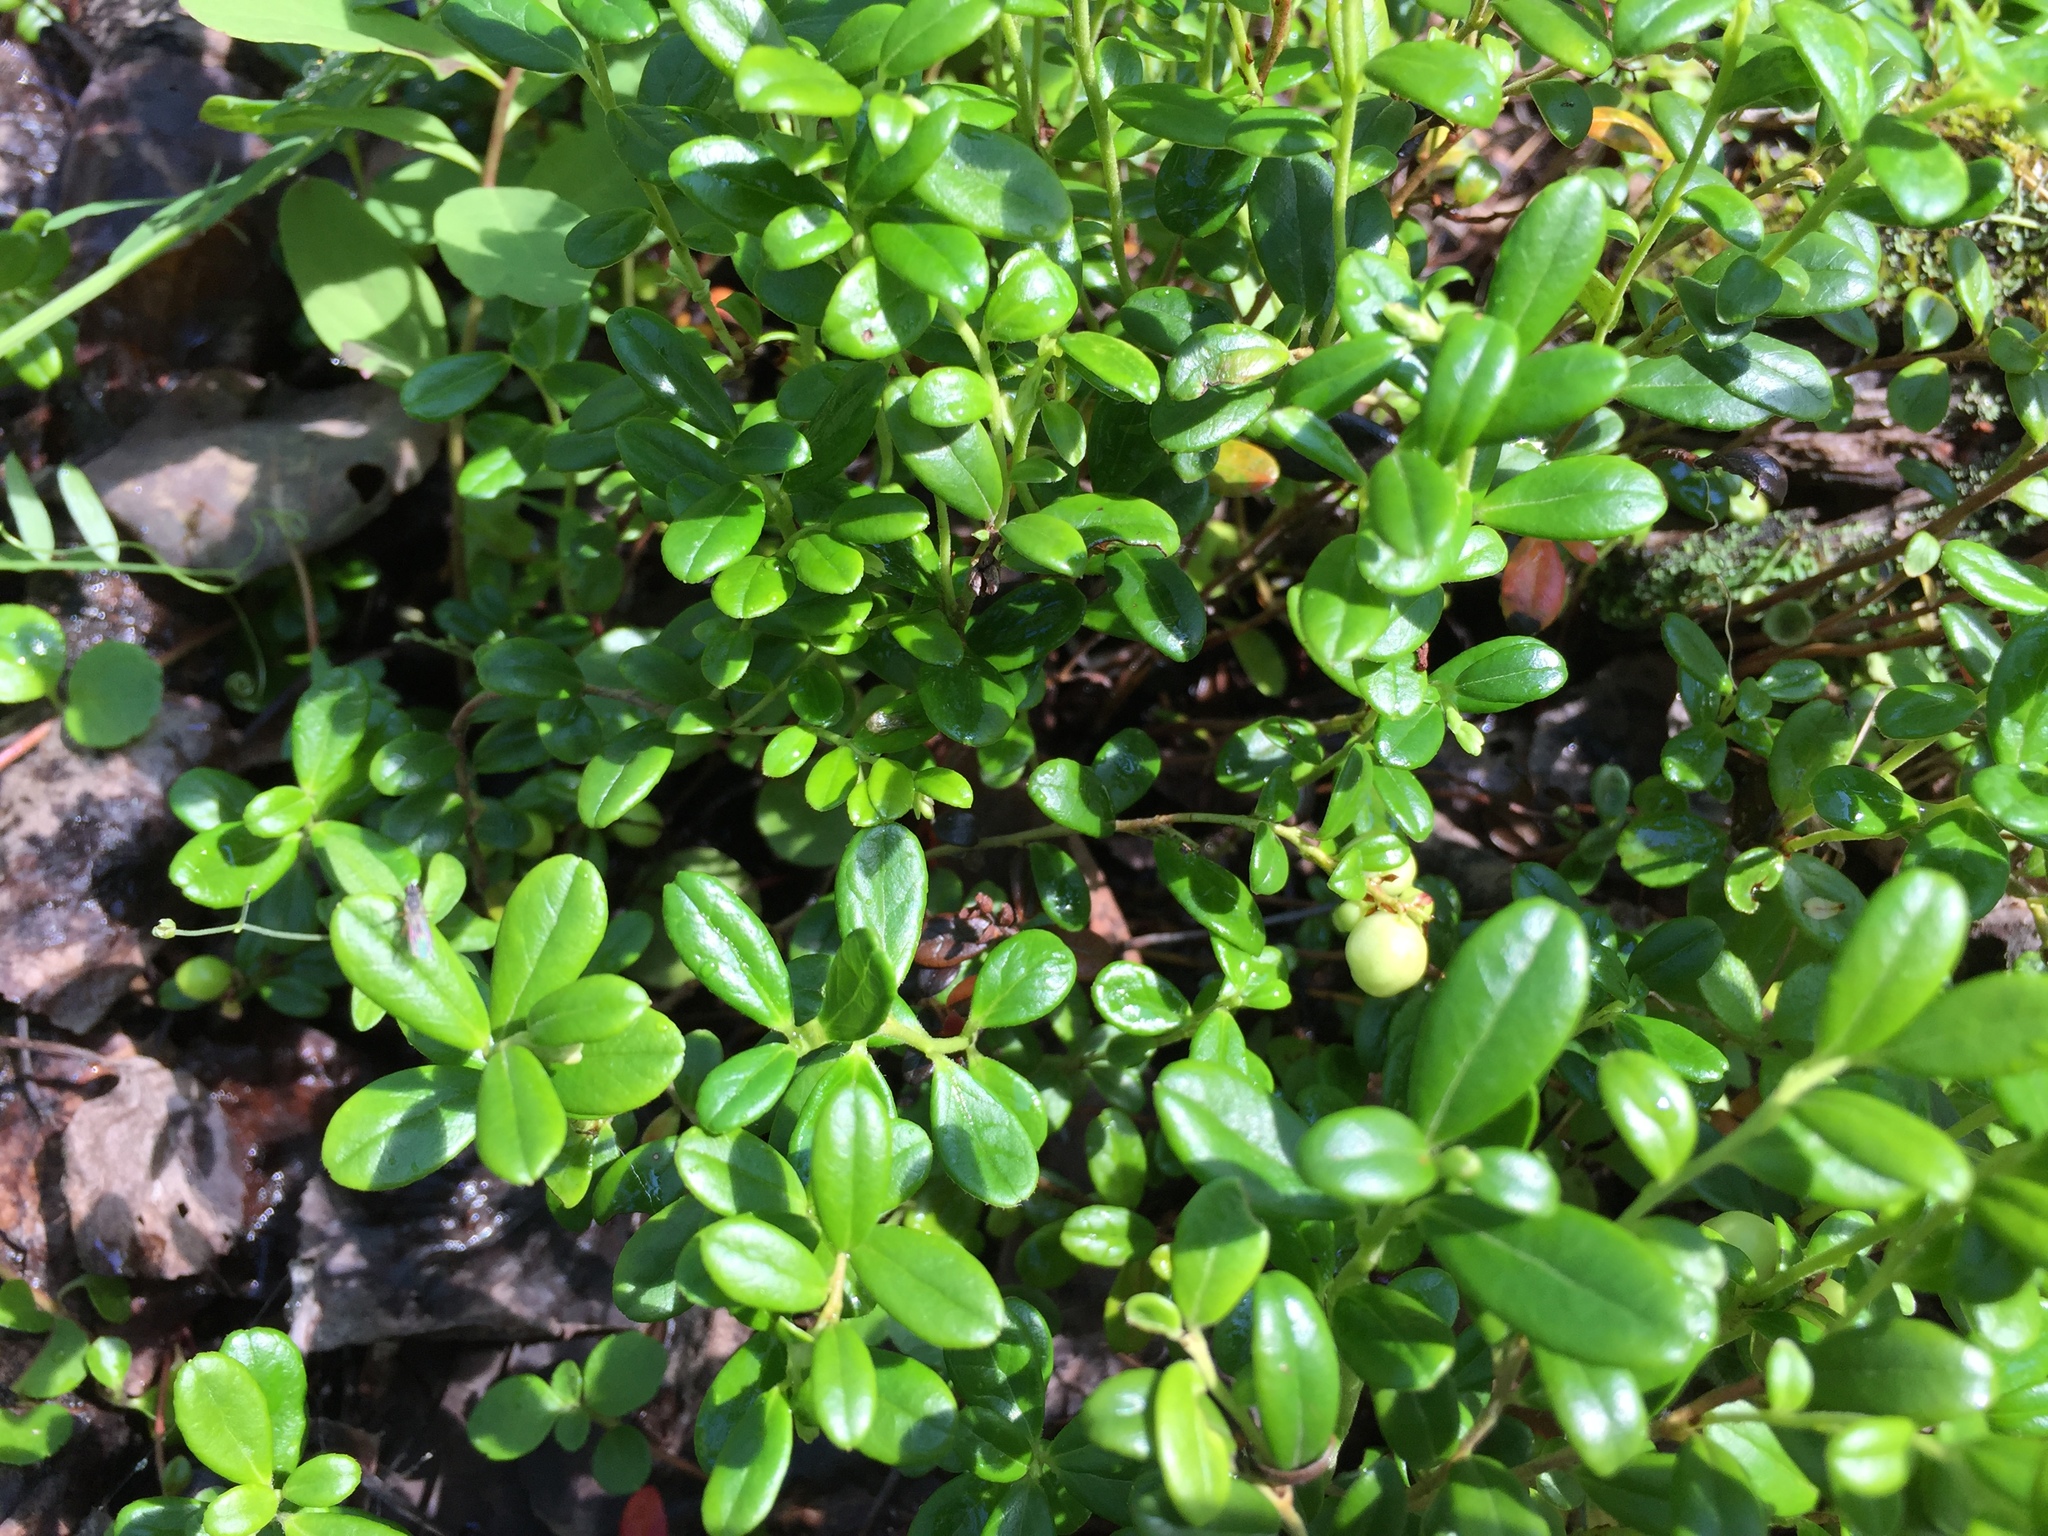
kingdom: Plantae
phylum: Tracheophyta
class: Magnoliopsida
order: Ericales
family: Ericaceae
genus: Vaccinium
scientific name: Vaccinium vitis-idaea
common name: Cowberry
